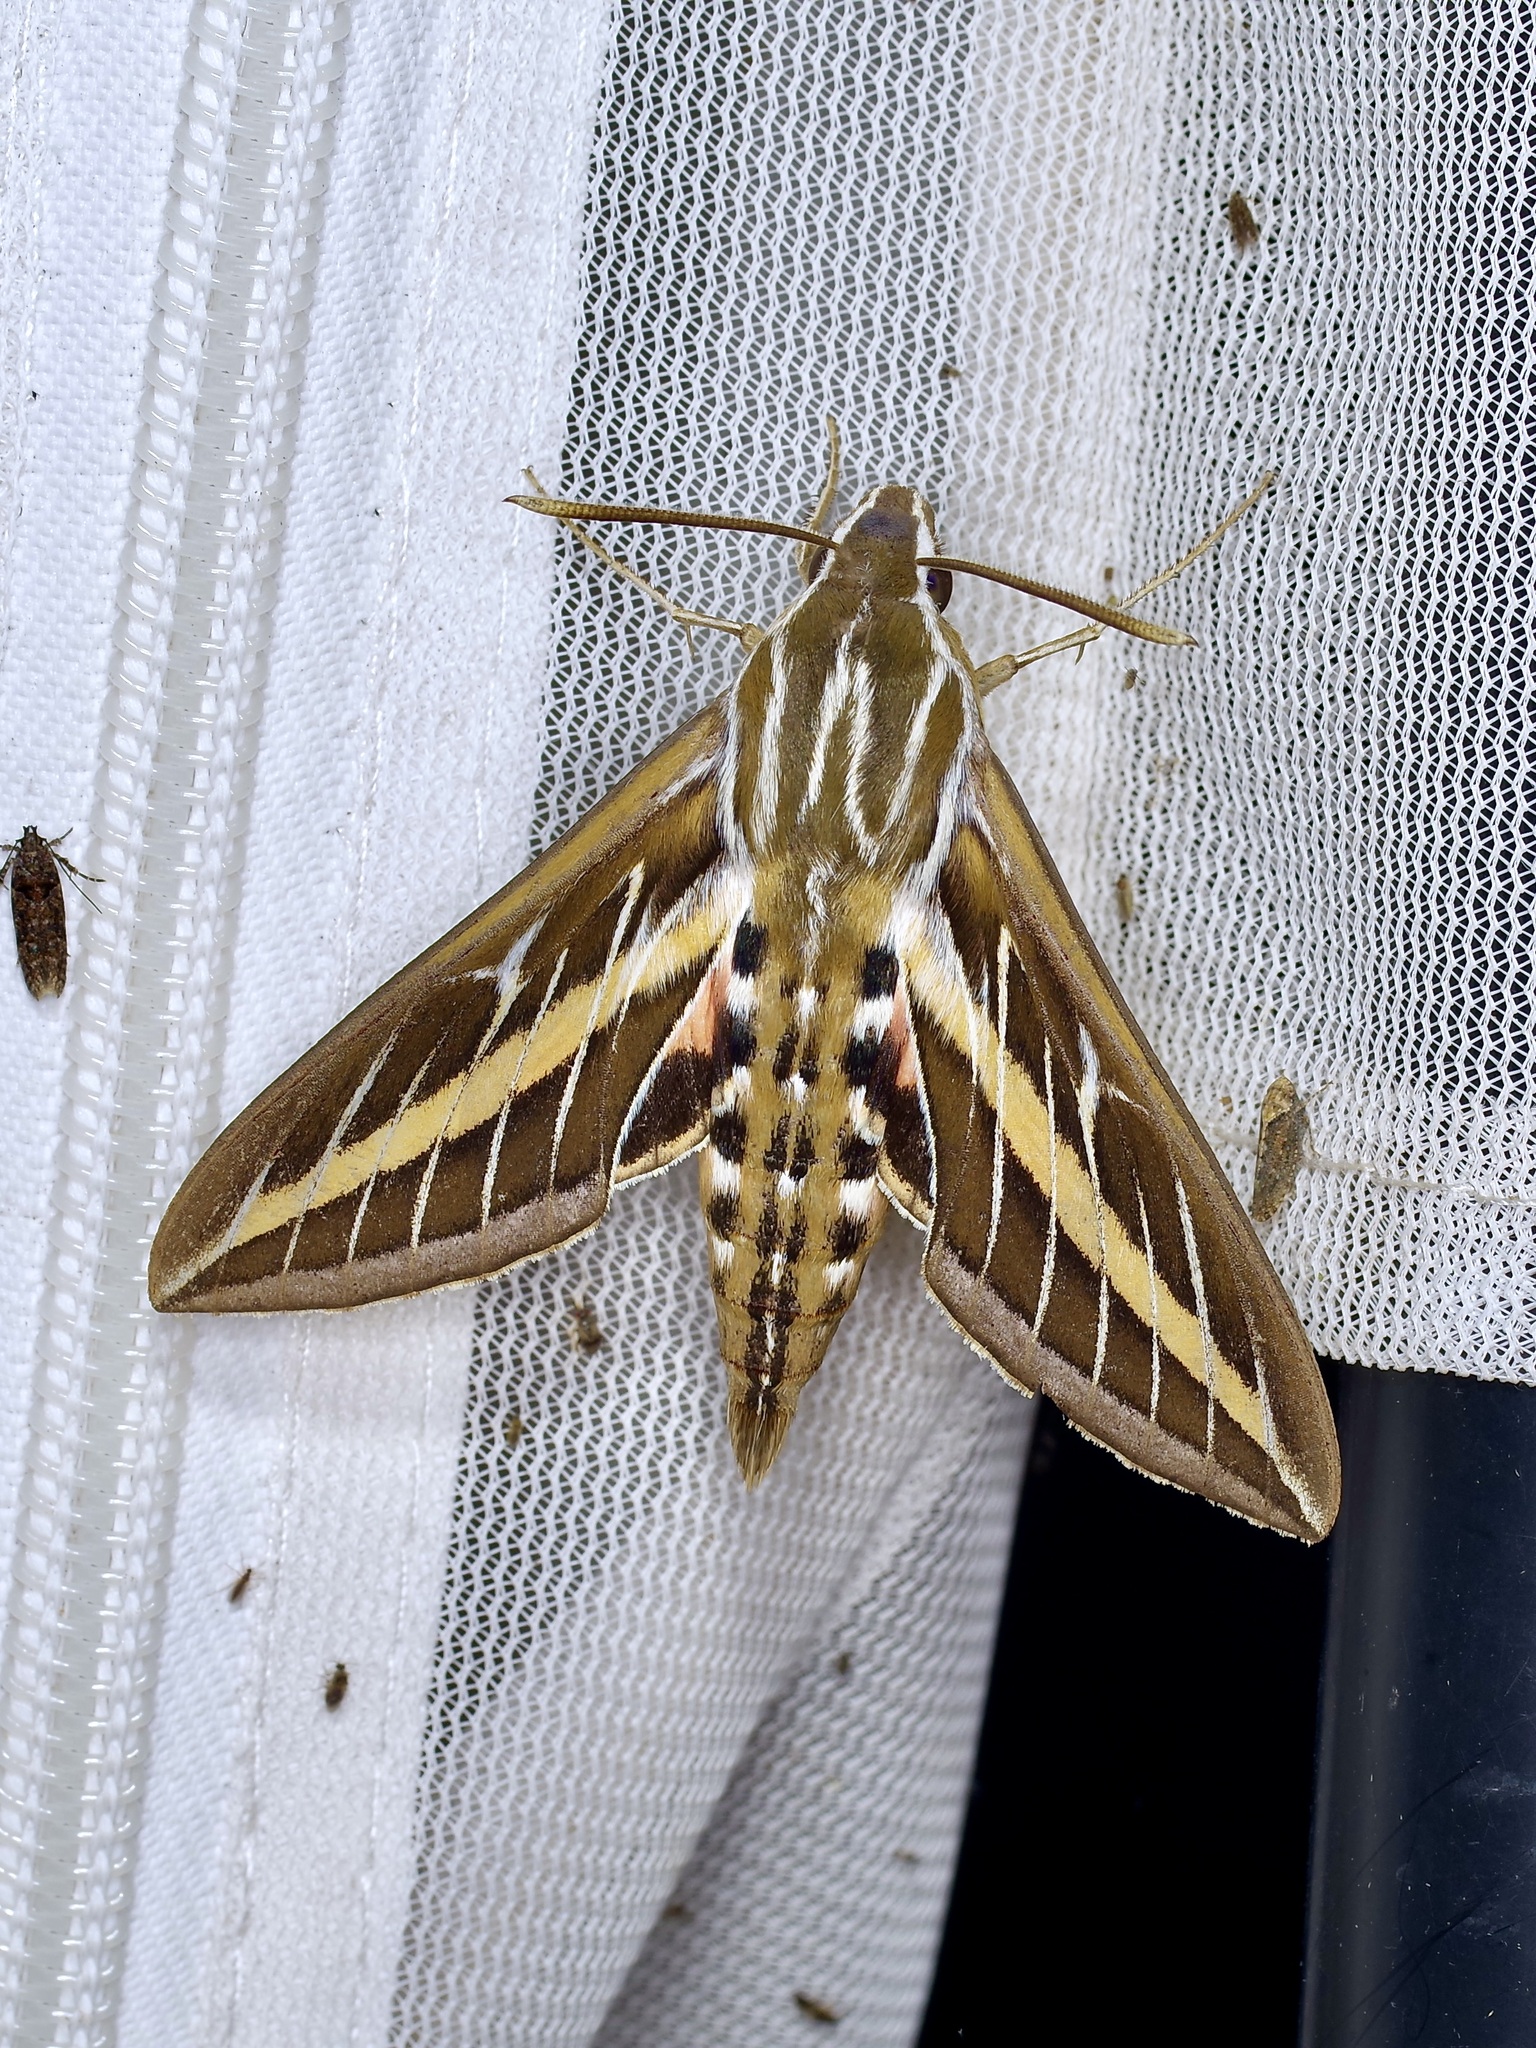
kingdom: Animalia
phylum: Arthropoda
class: Insecta
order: Lepidoptera
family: Sphingidae
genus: Hyles
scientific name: Hyles lineata
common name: White-lined sphinx
